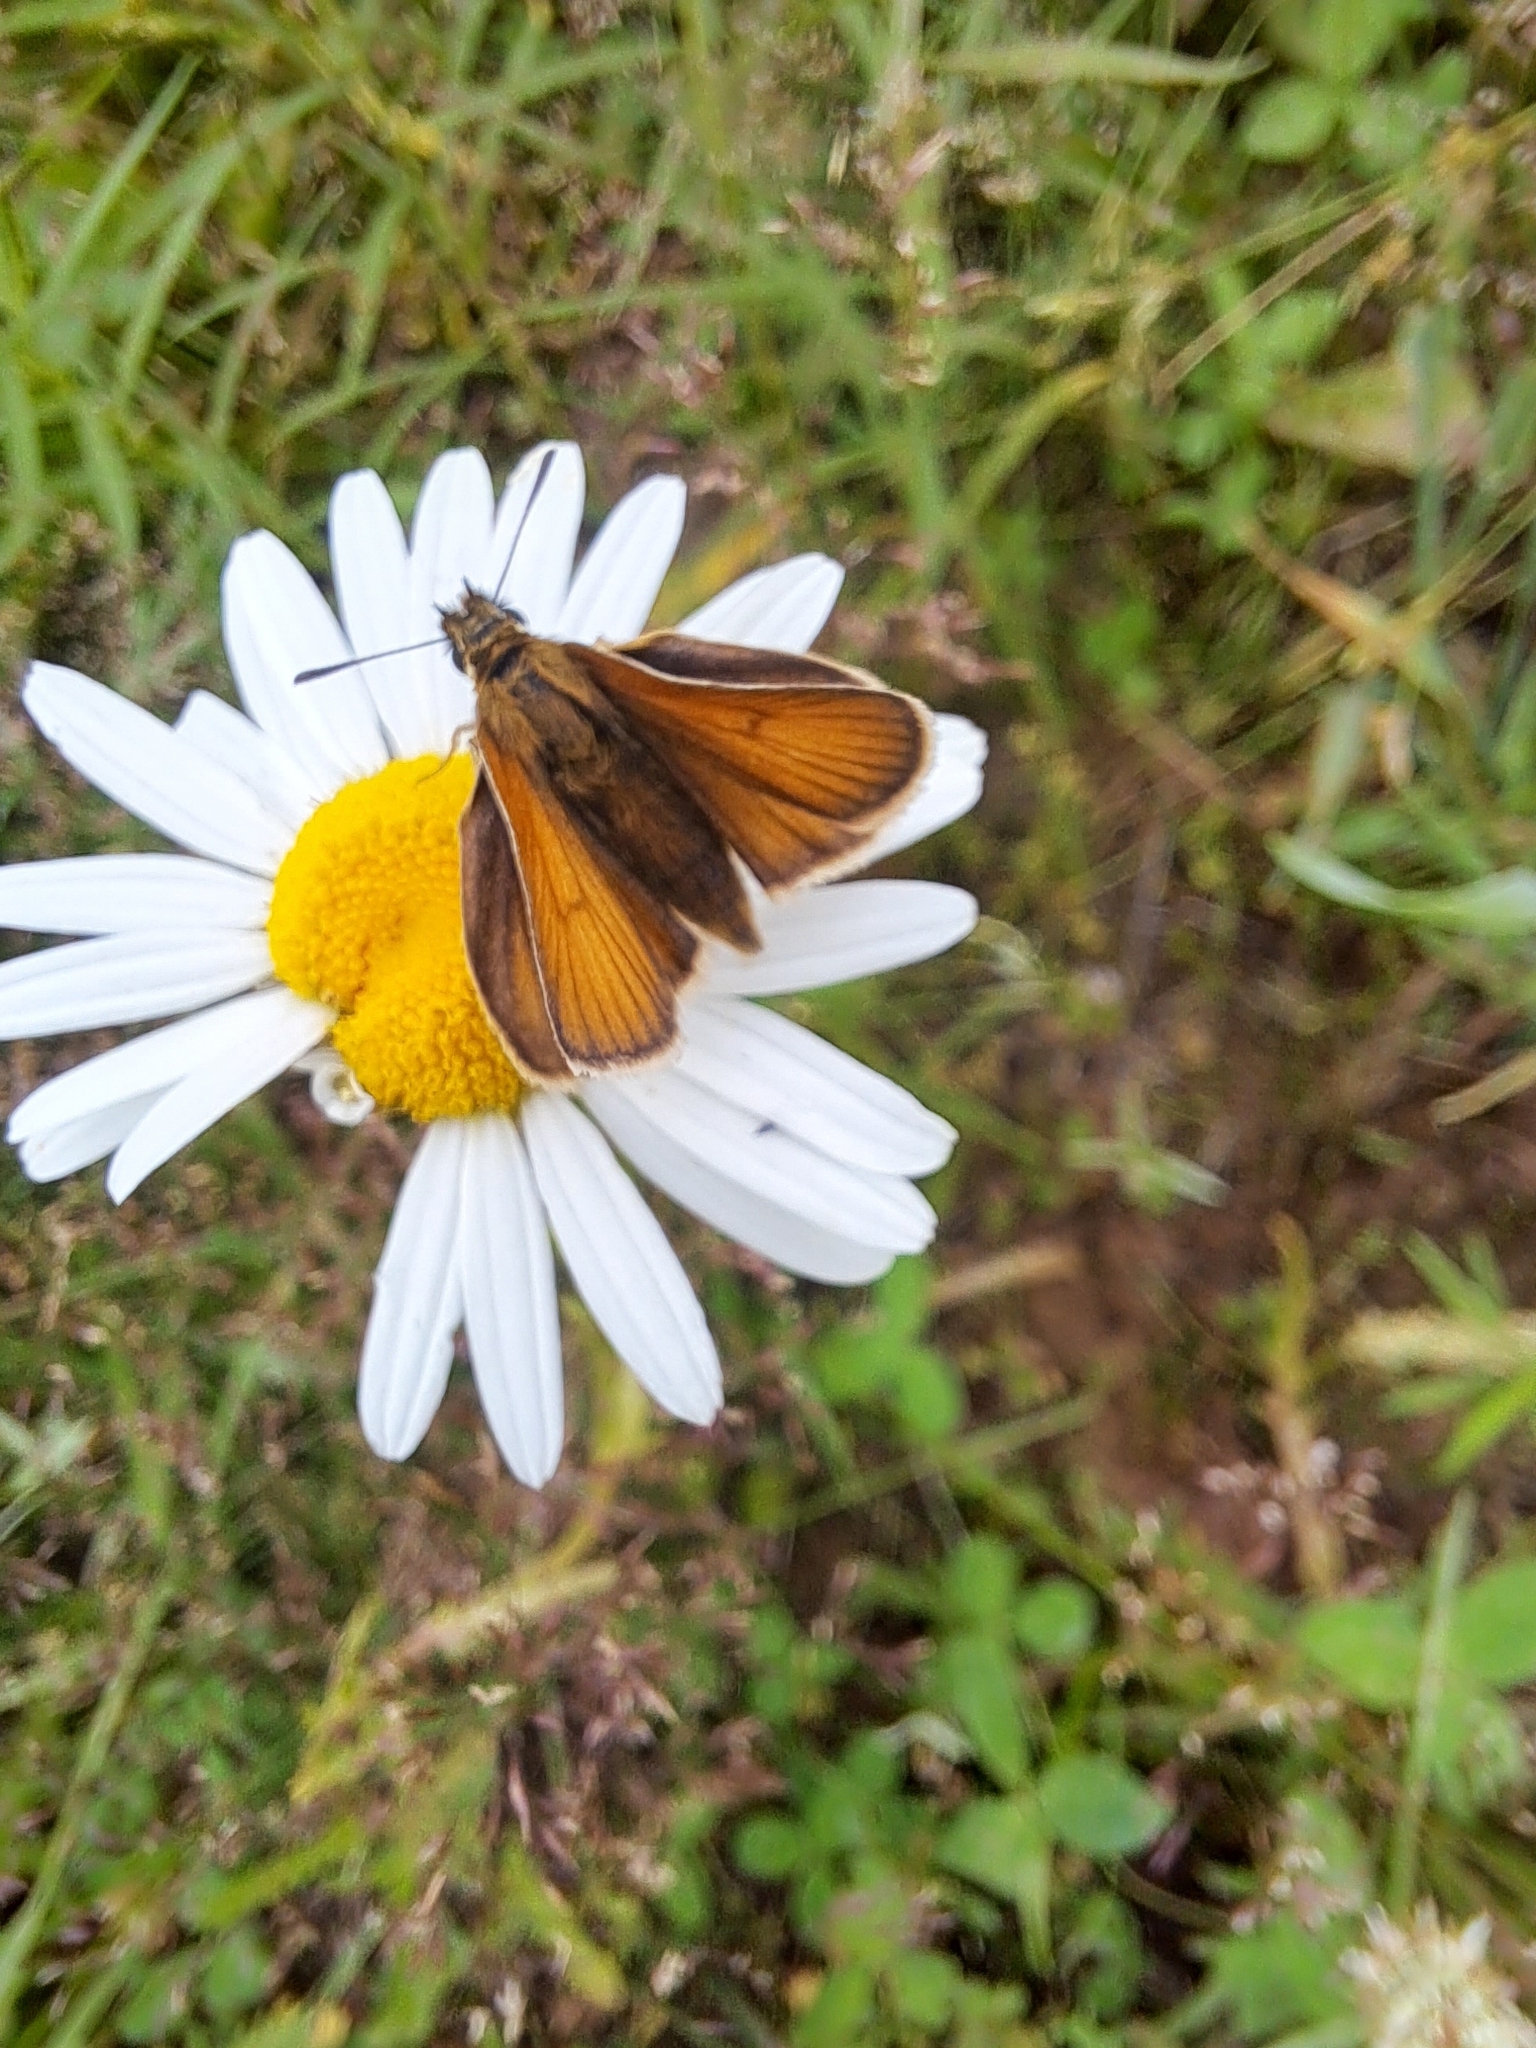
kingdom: Animalia
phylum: Arthropoda
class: Insecta
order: Lepidoptera
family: Hesperiidae
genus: Thymelicus
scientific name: Thymelicus lineola
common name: Essex skipper
